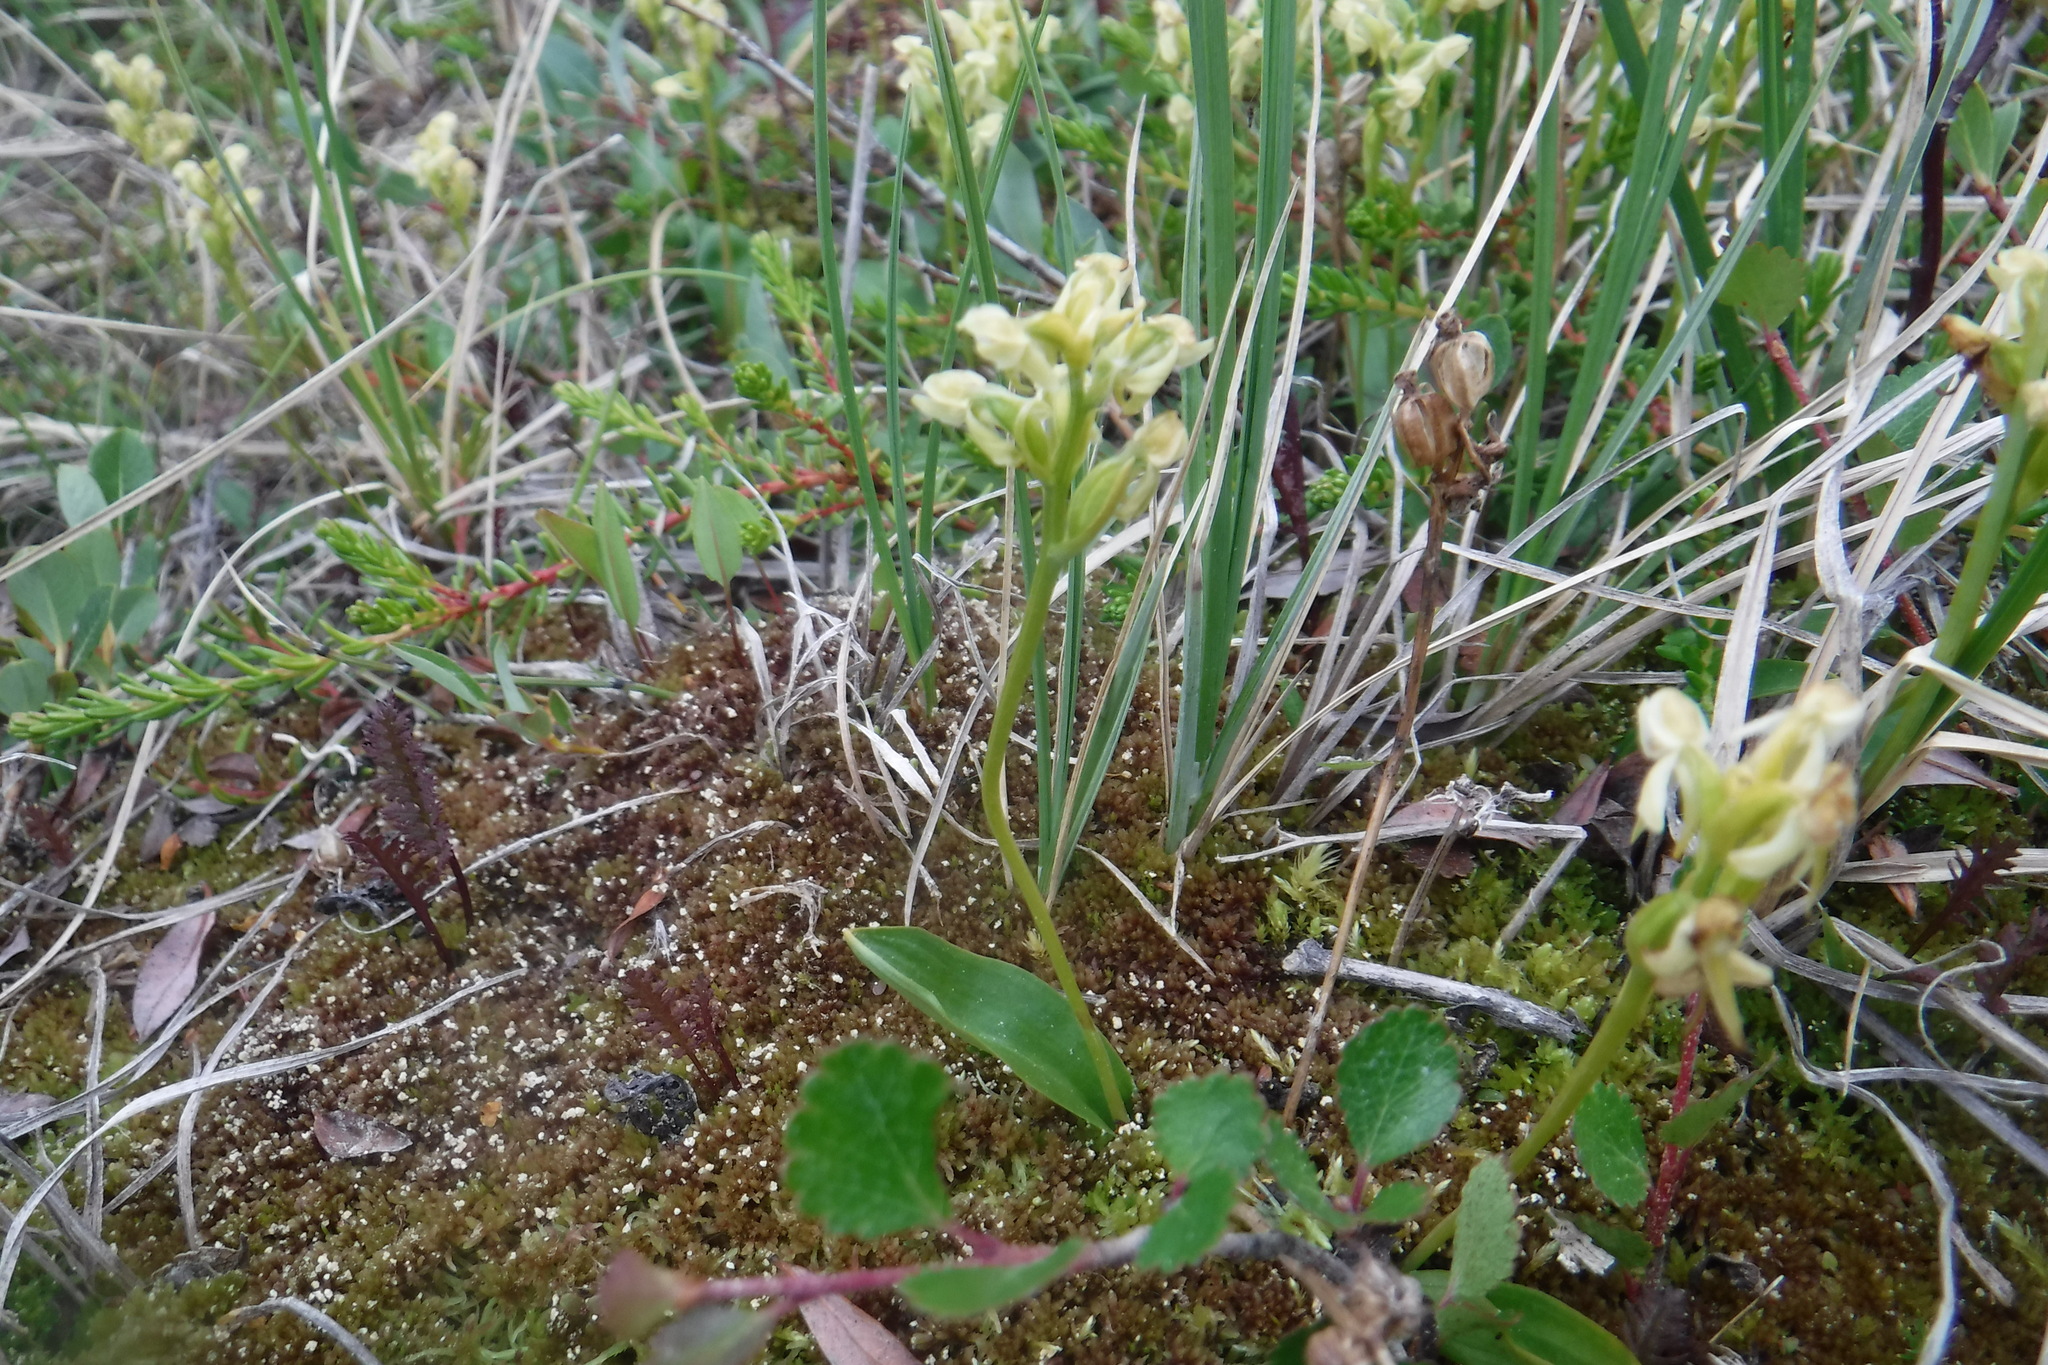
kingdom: Plantae
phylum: Tracheophyta
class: Liliopsida
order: Asparagales
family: Orchidaceae
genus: Platanthera
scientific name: Platanthera obtusata
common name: Blunt bog orchid
